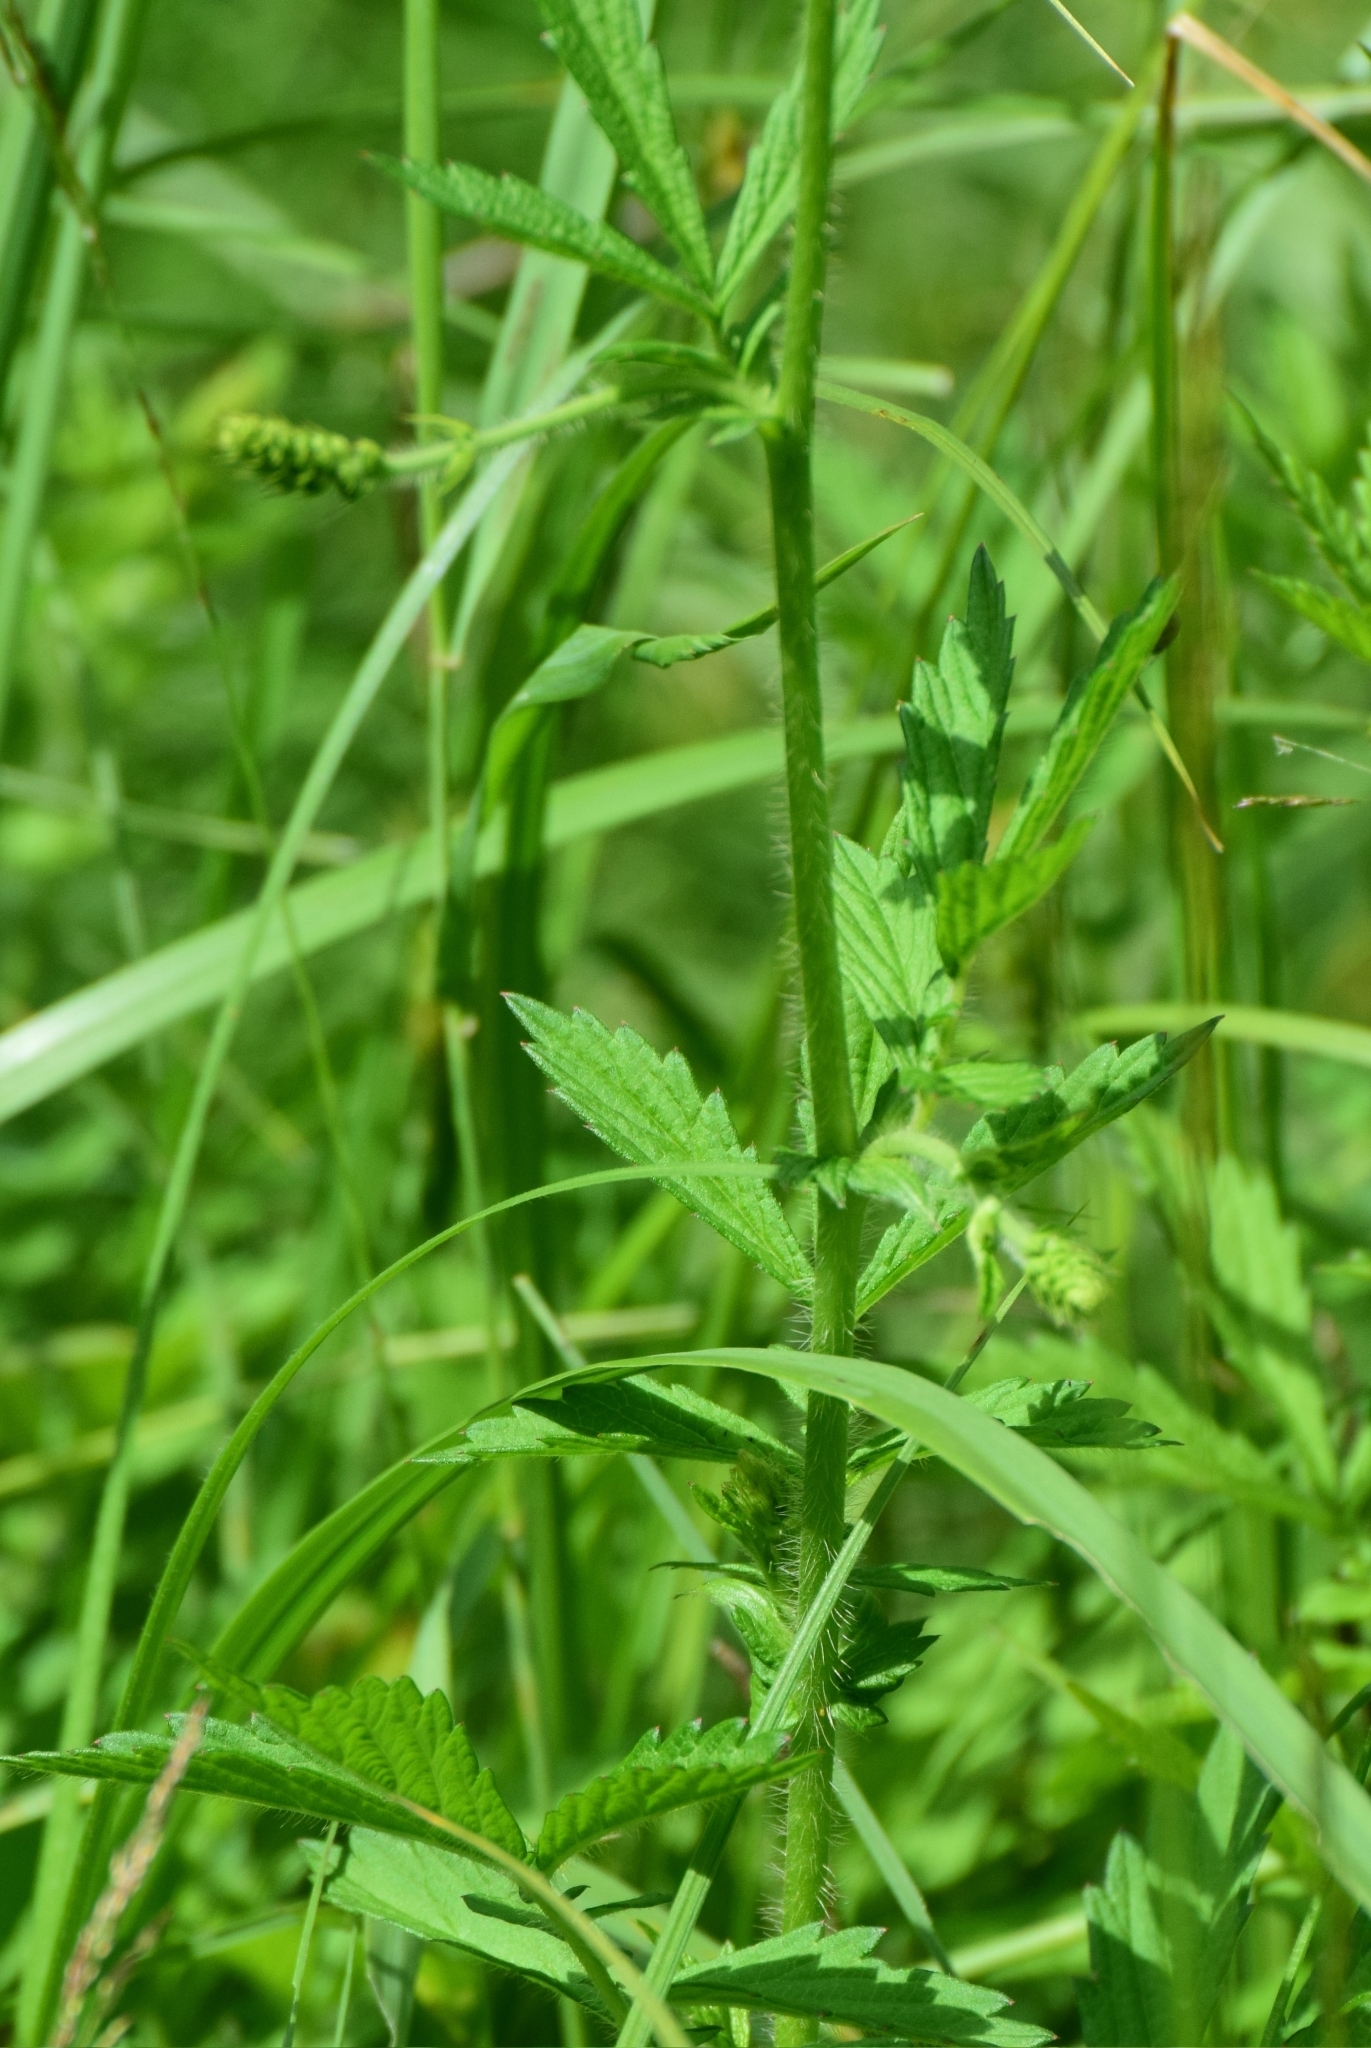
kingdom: Plantae
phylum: Tracheophyta
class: Magnoliopsida
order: Rosales
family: Rosaceae
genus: Agrimonia
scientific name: Agrimonia pilosa
